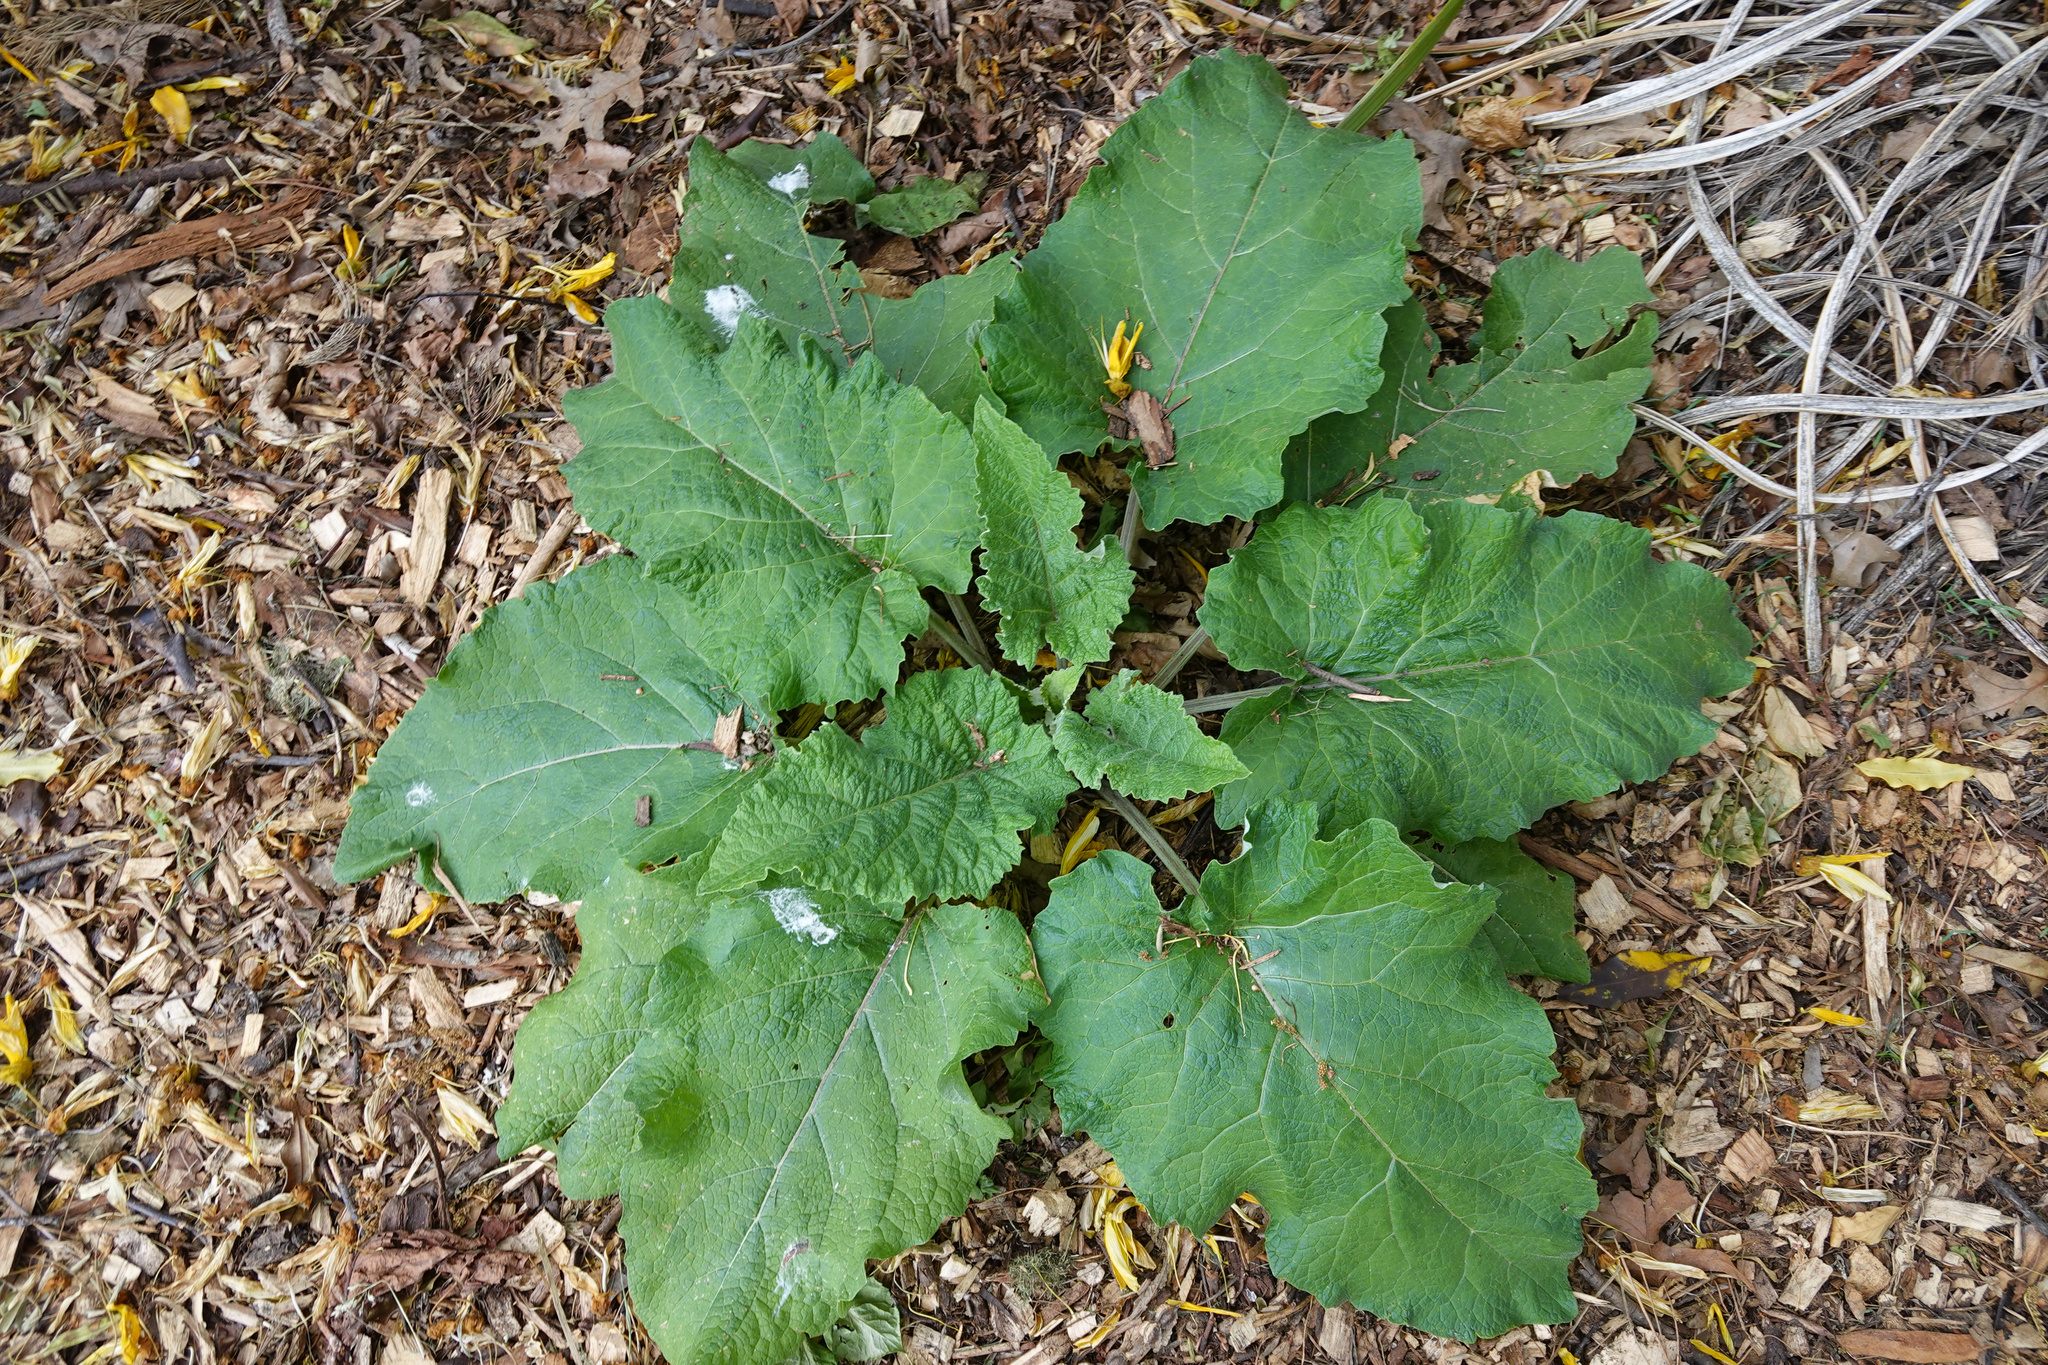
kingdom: Plantae
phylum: Tracheophyta
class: Magnoliopsida
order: Asterales
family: Asteraceae
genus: Arctium
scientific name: Arctium minus
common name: Lesser burdock
